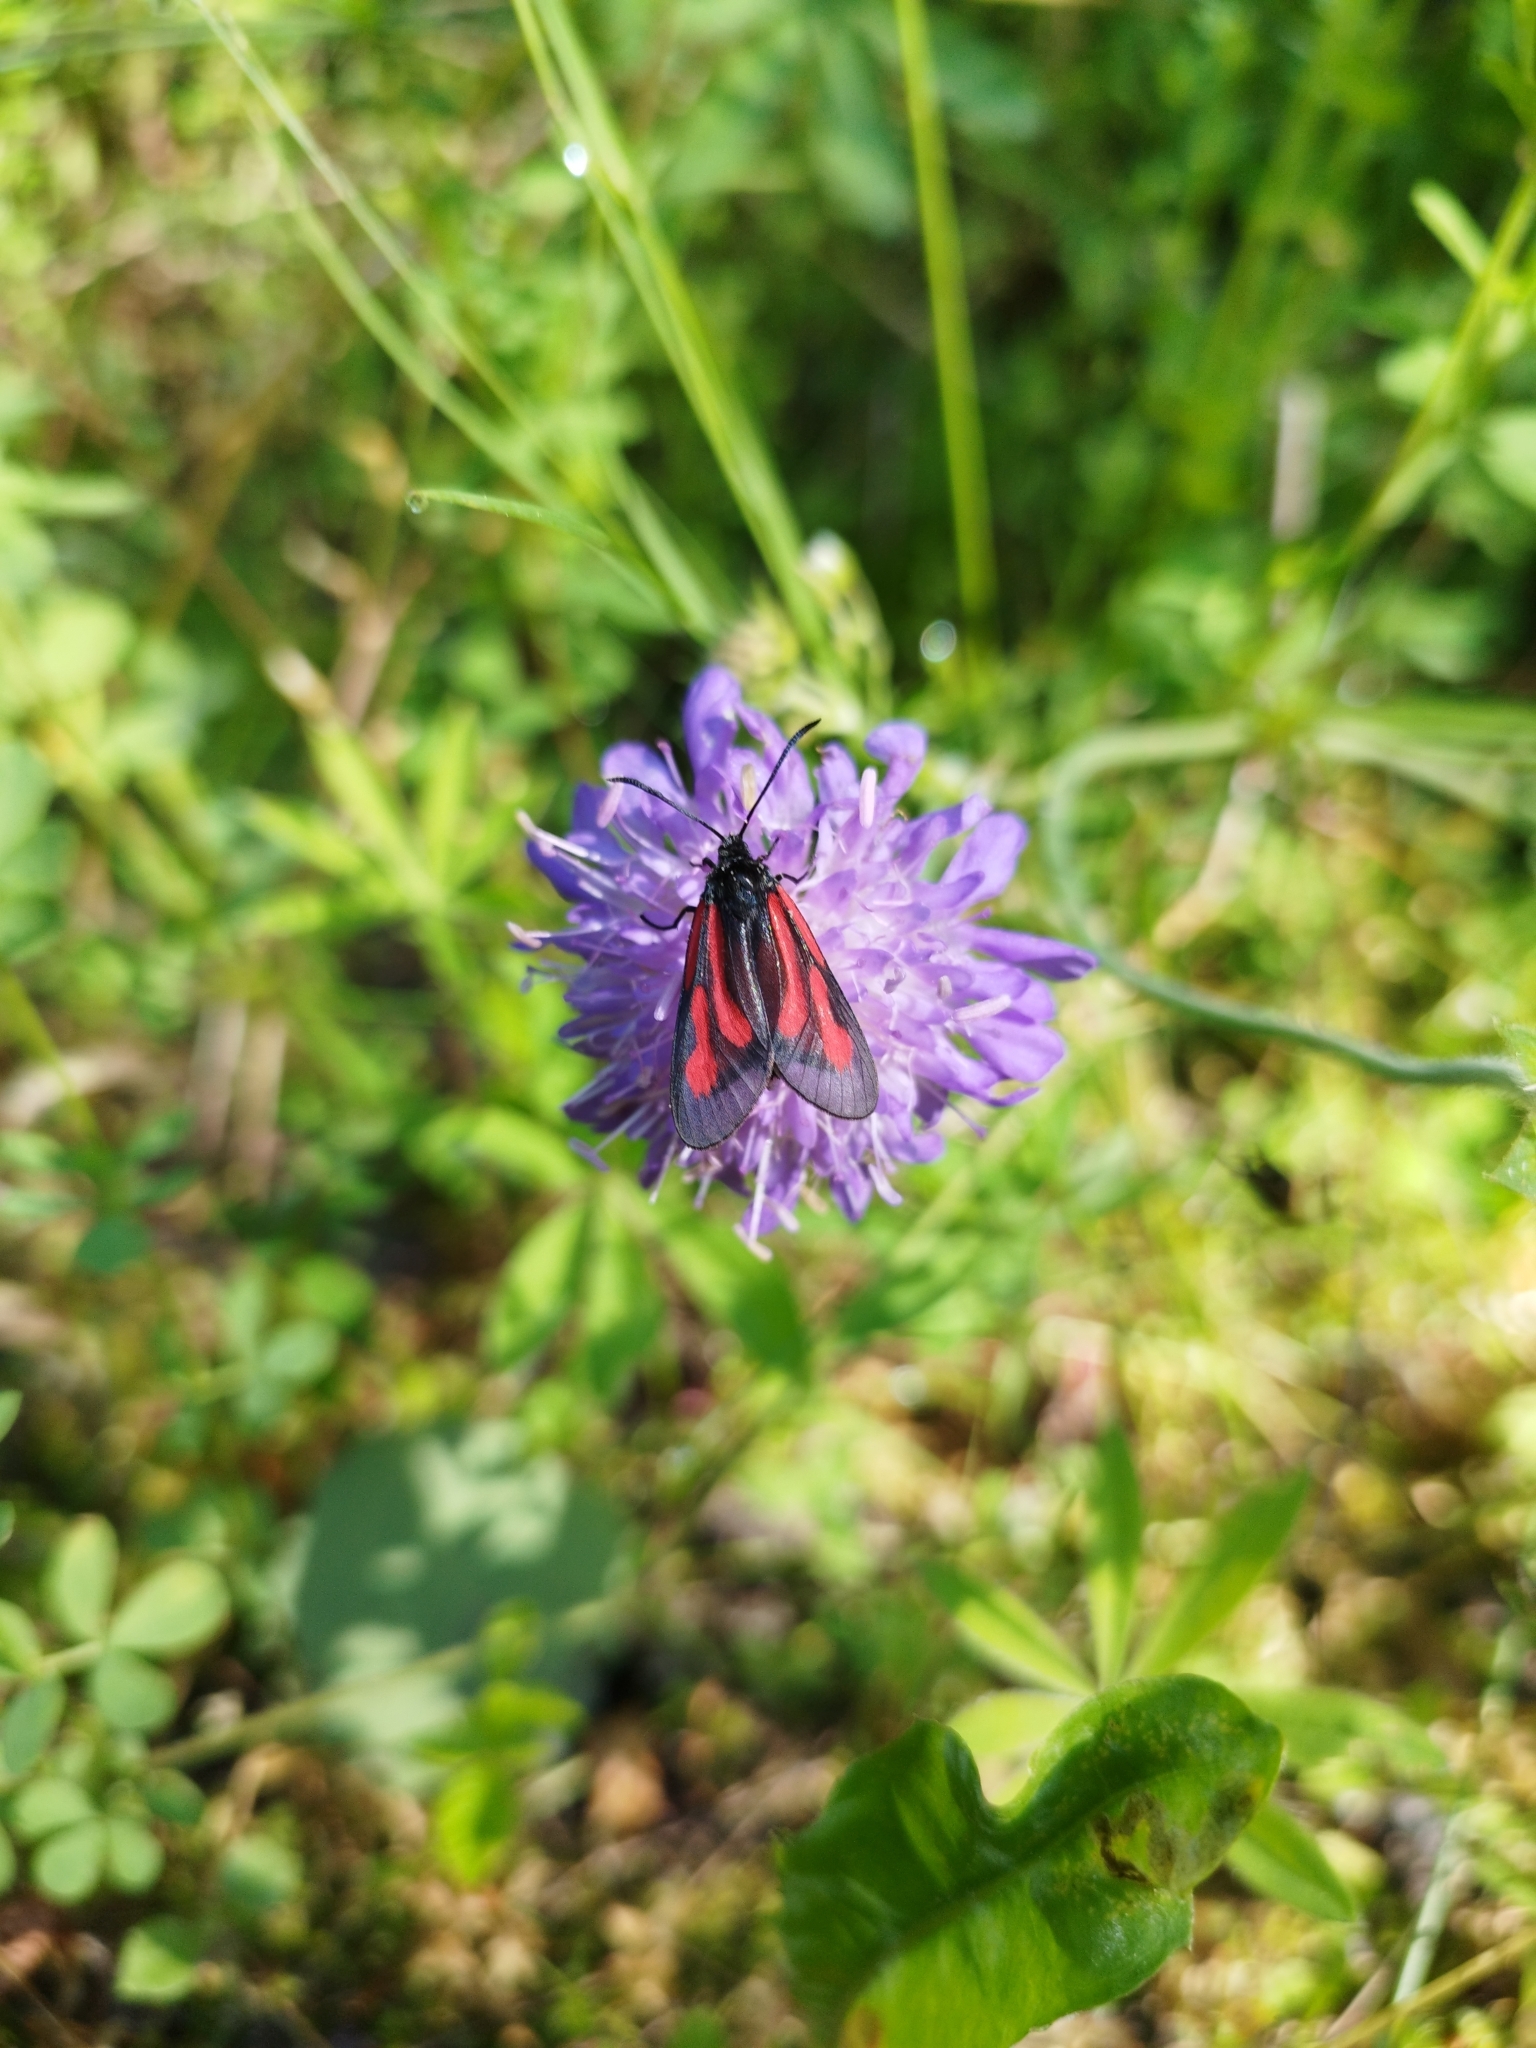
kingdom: Animalia
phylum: Arthropoda
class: Insecta
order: Lepidoptera
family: Zygaenidae
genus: Zygaena
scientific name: Zygaena osterodensis
